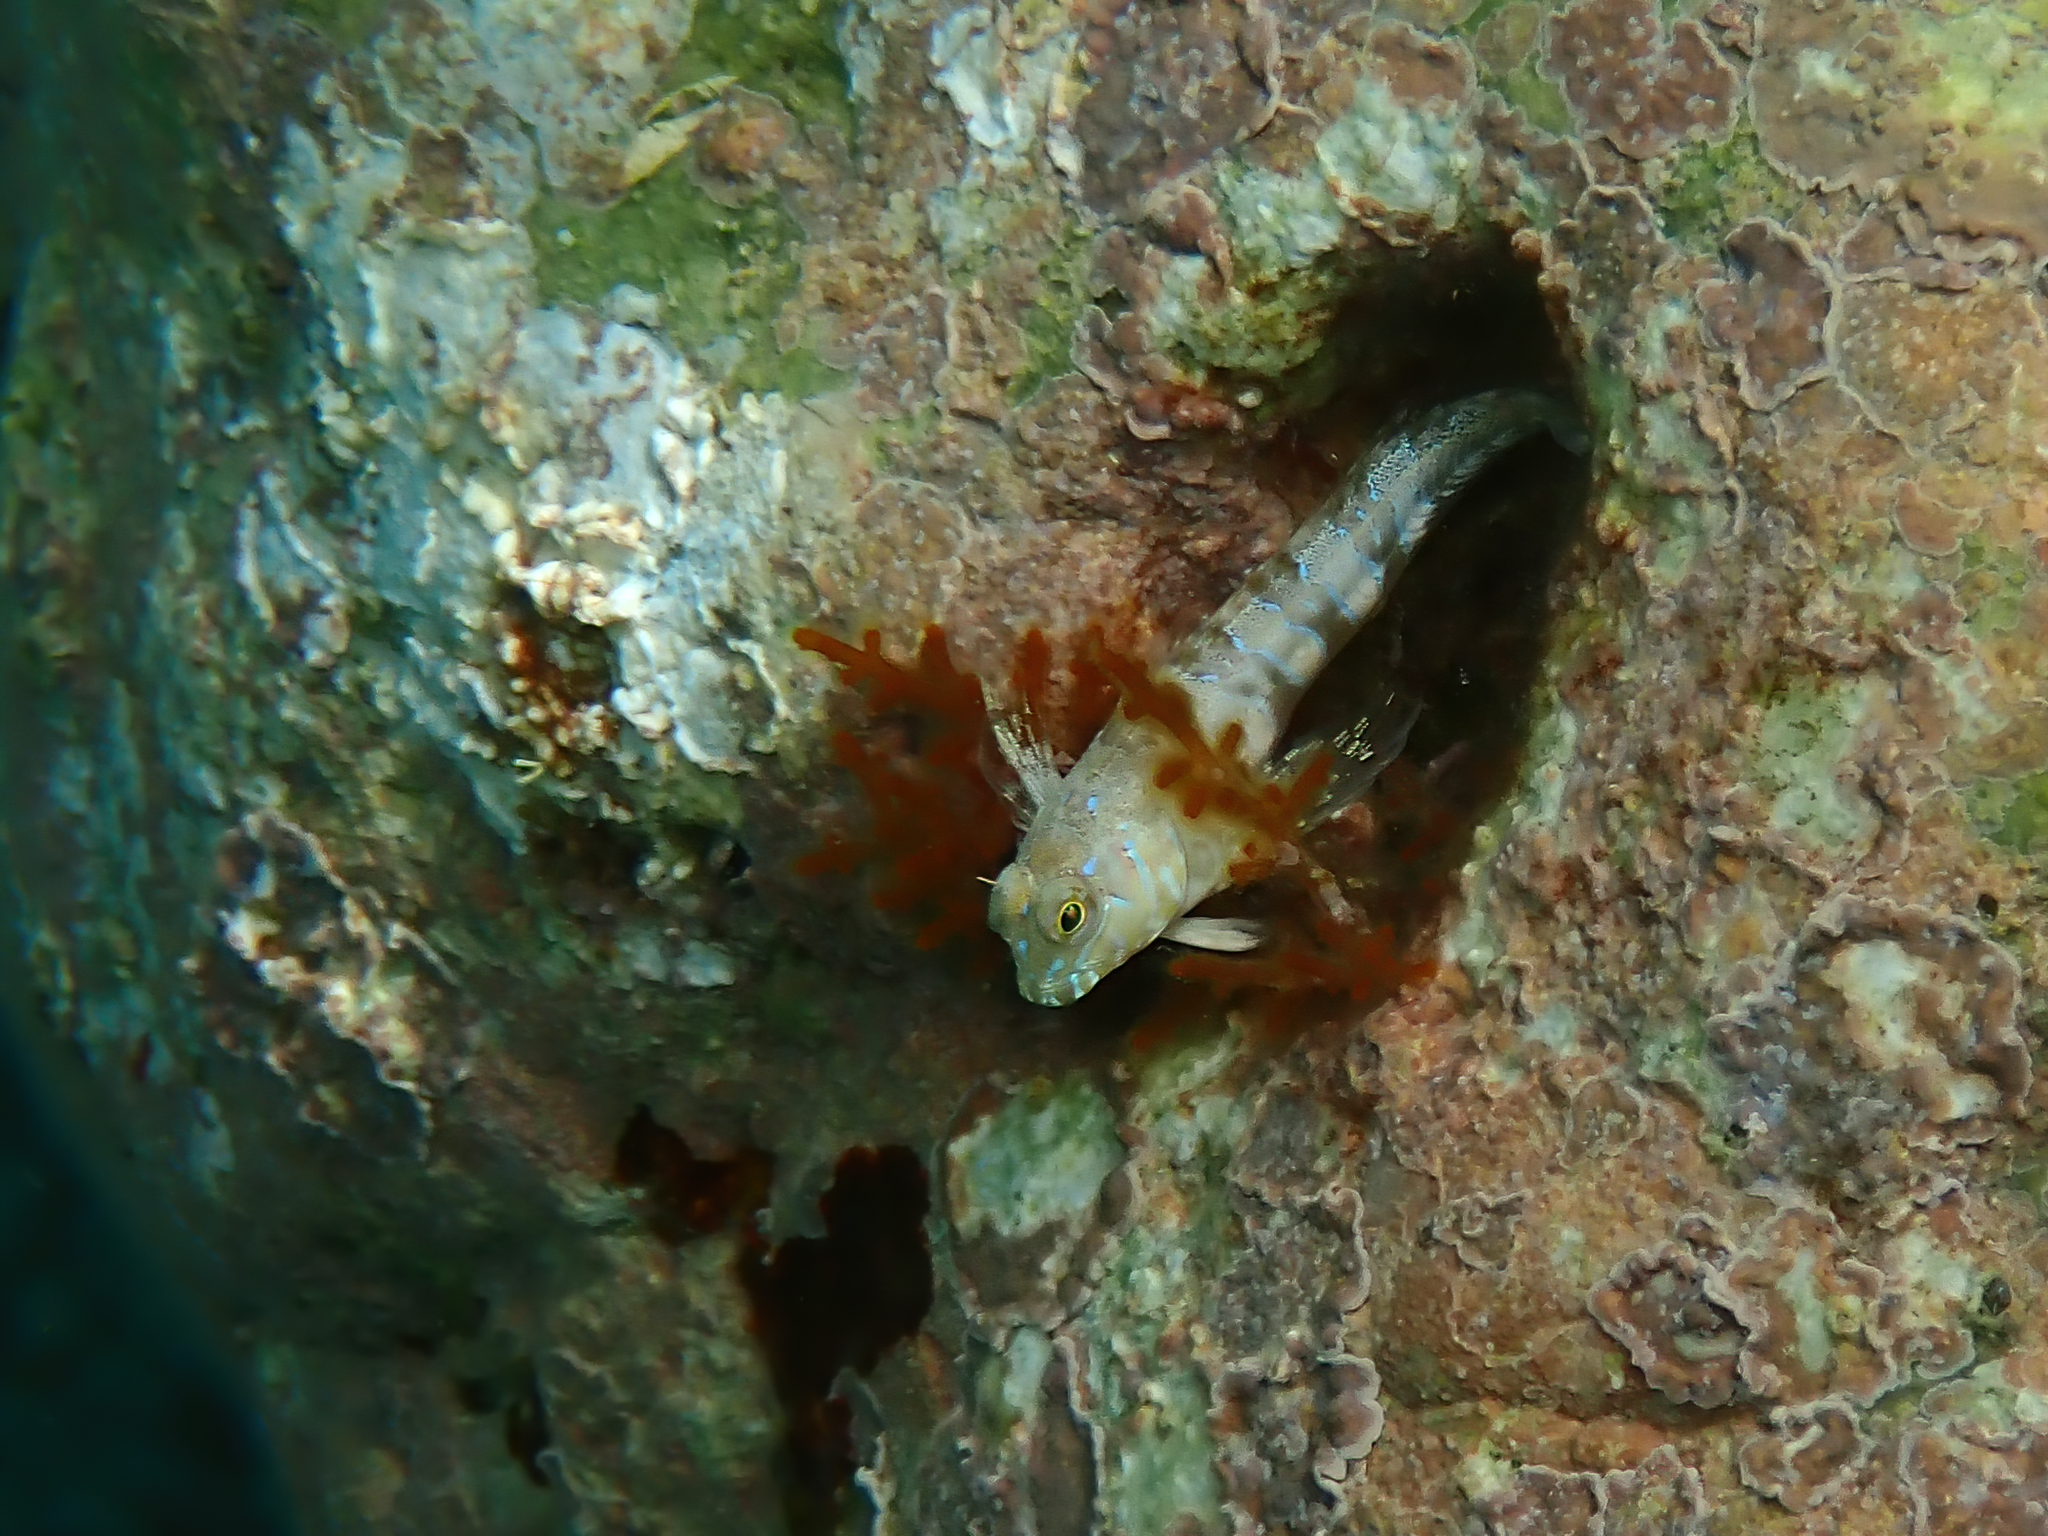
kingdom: Animalia
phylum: Chordata
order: Perciformes
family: Blenniidae
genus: Aidablennius
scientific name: Aidablennius sphynx
